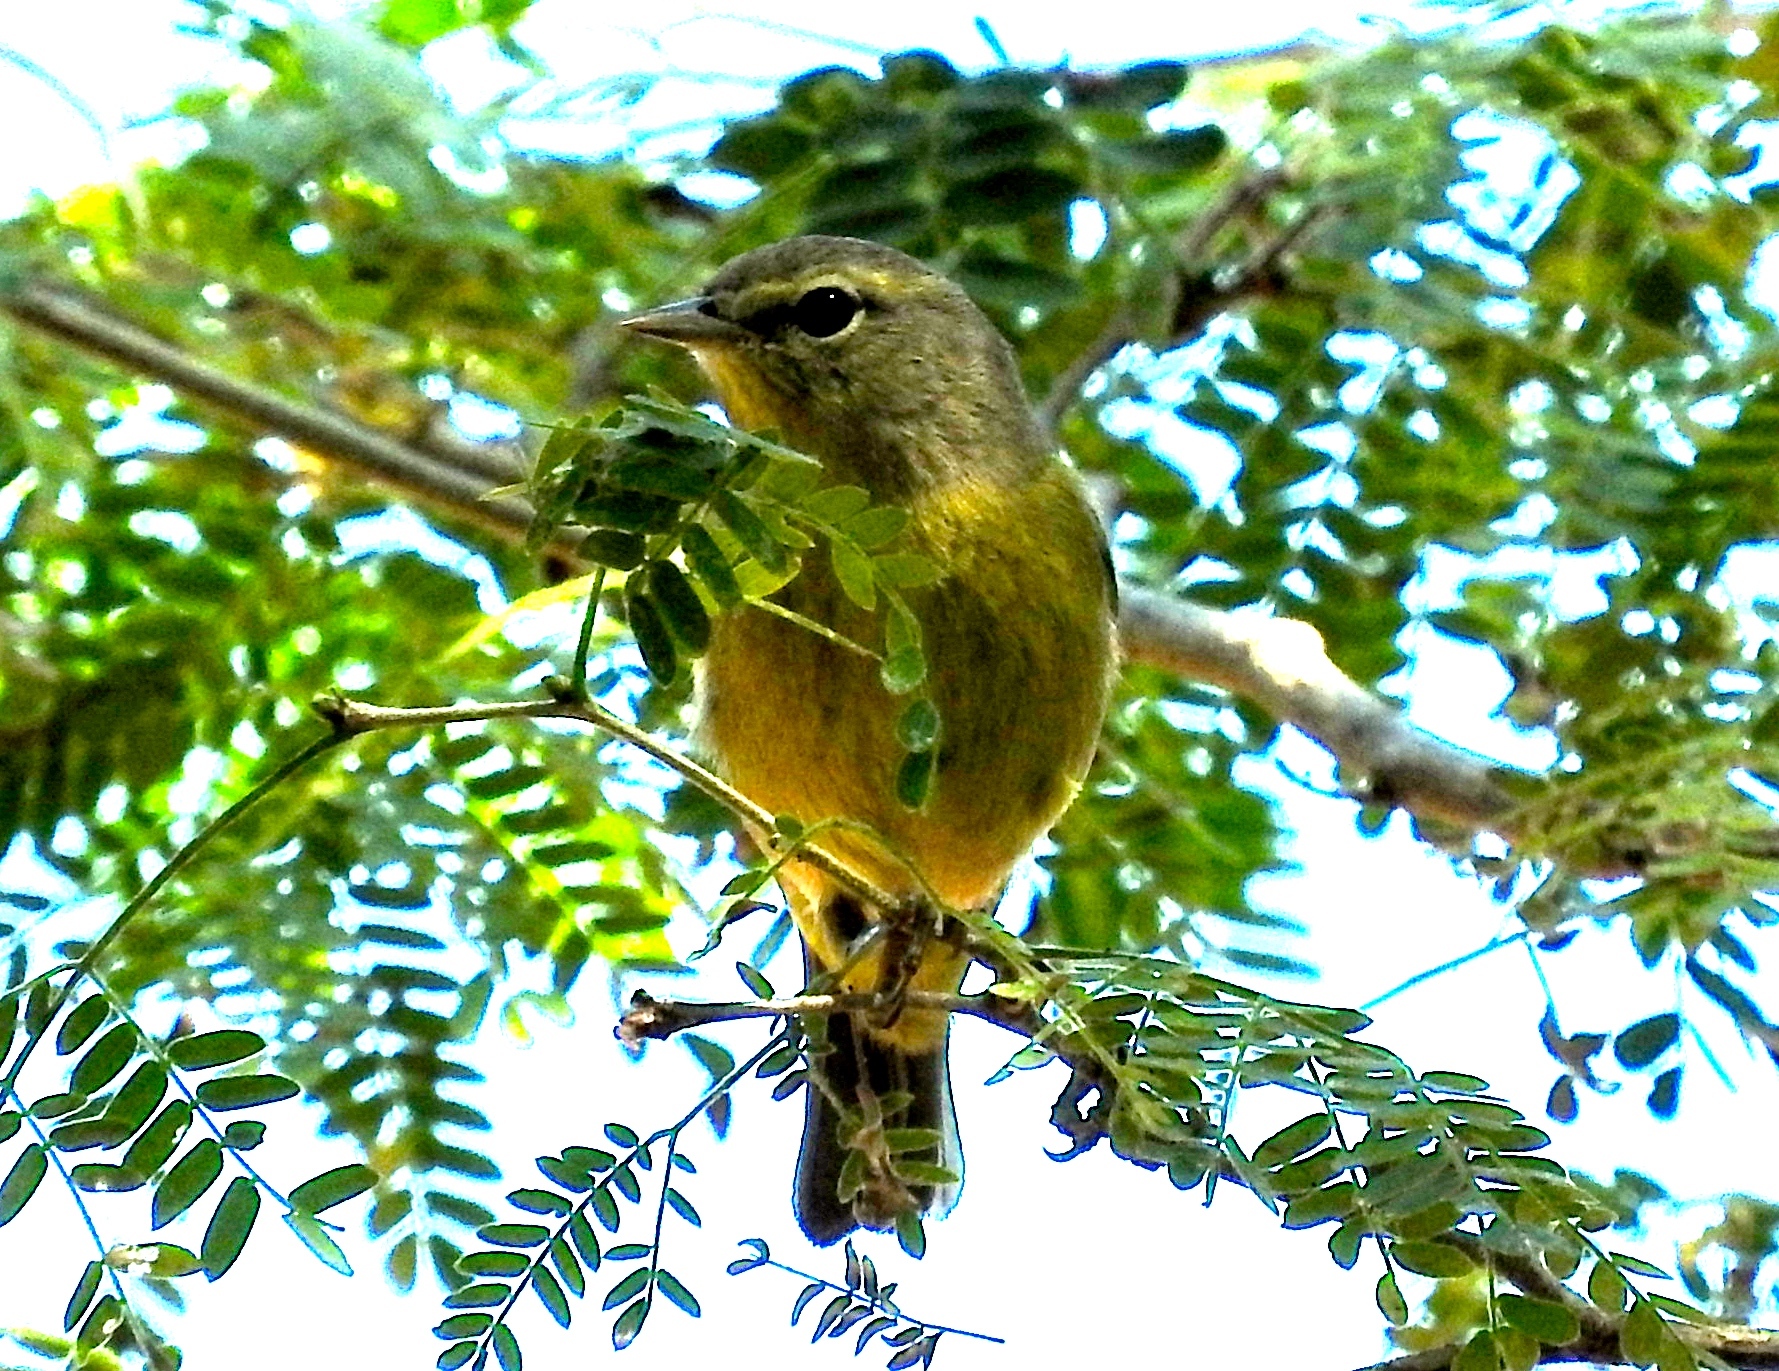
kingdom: Animalia
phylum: Chordata
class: Aves
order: Passeriformes
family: Parulidae
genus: Leiothlypis
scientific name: Leiothlypis celata
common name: Orange-crowned warbler
